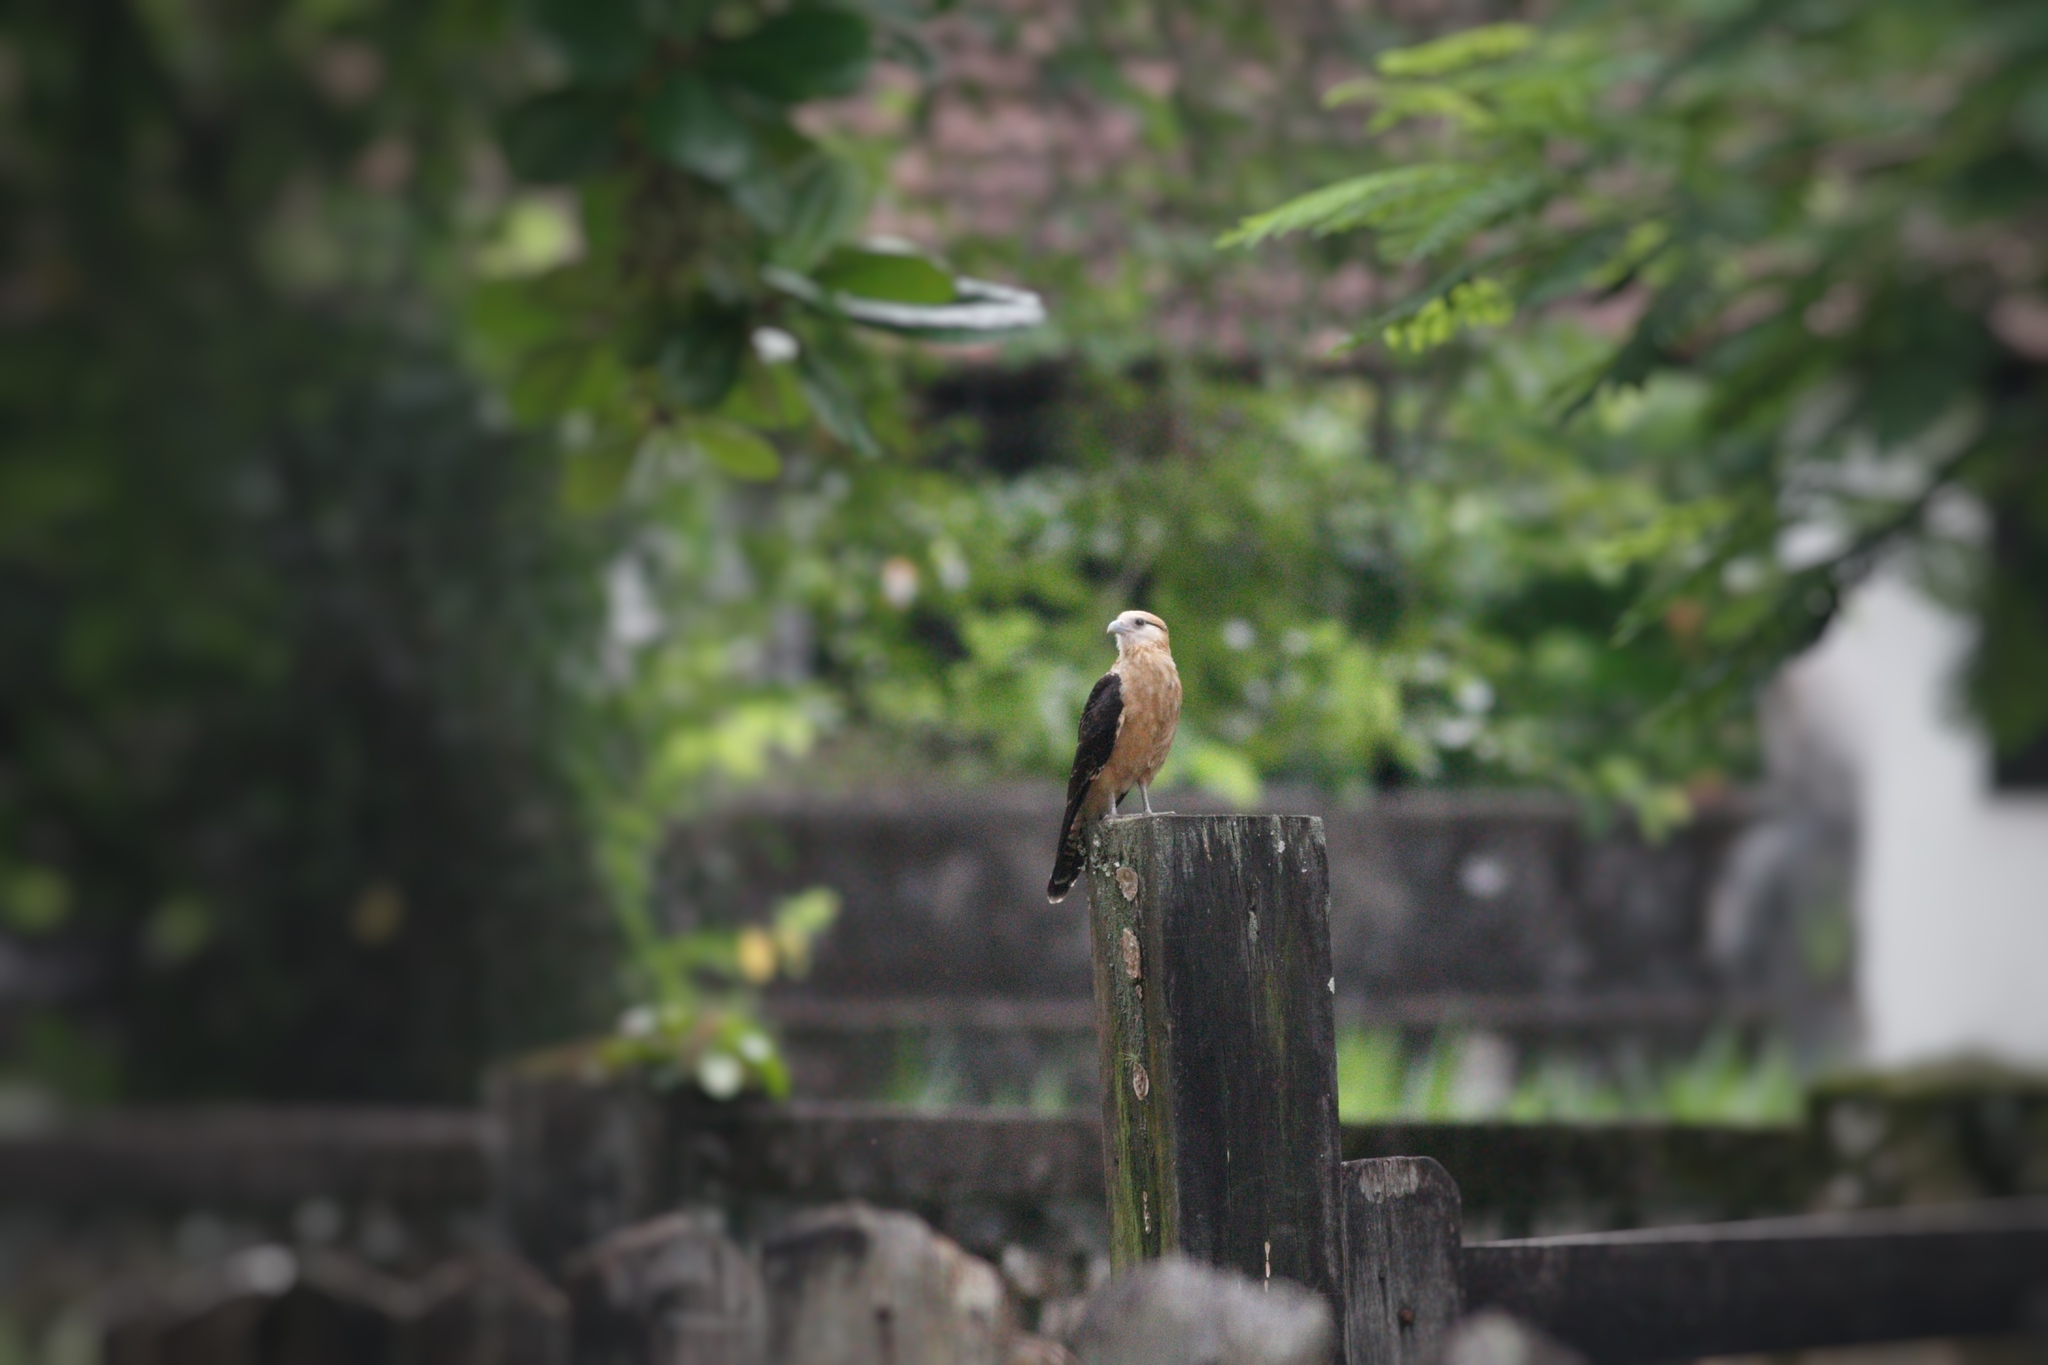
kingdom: Animalia
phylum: Chordata
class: Aves
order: Falconiformes
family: Falconidae
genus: Daptrius
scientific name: Daptrius
